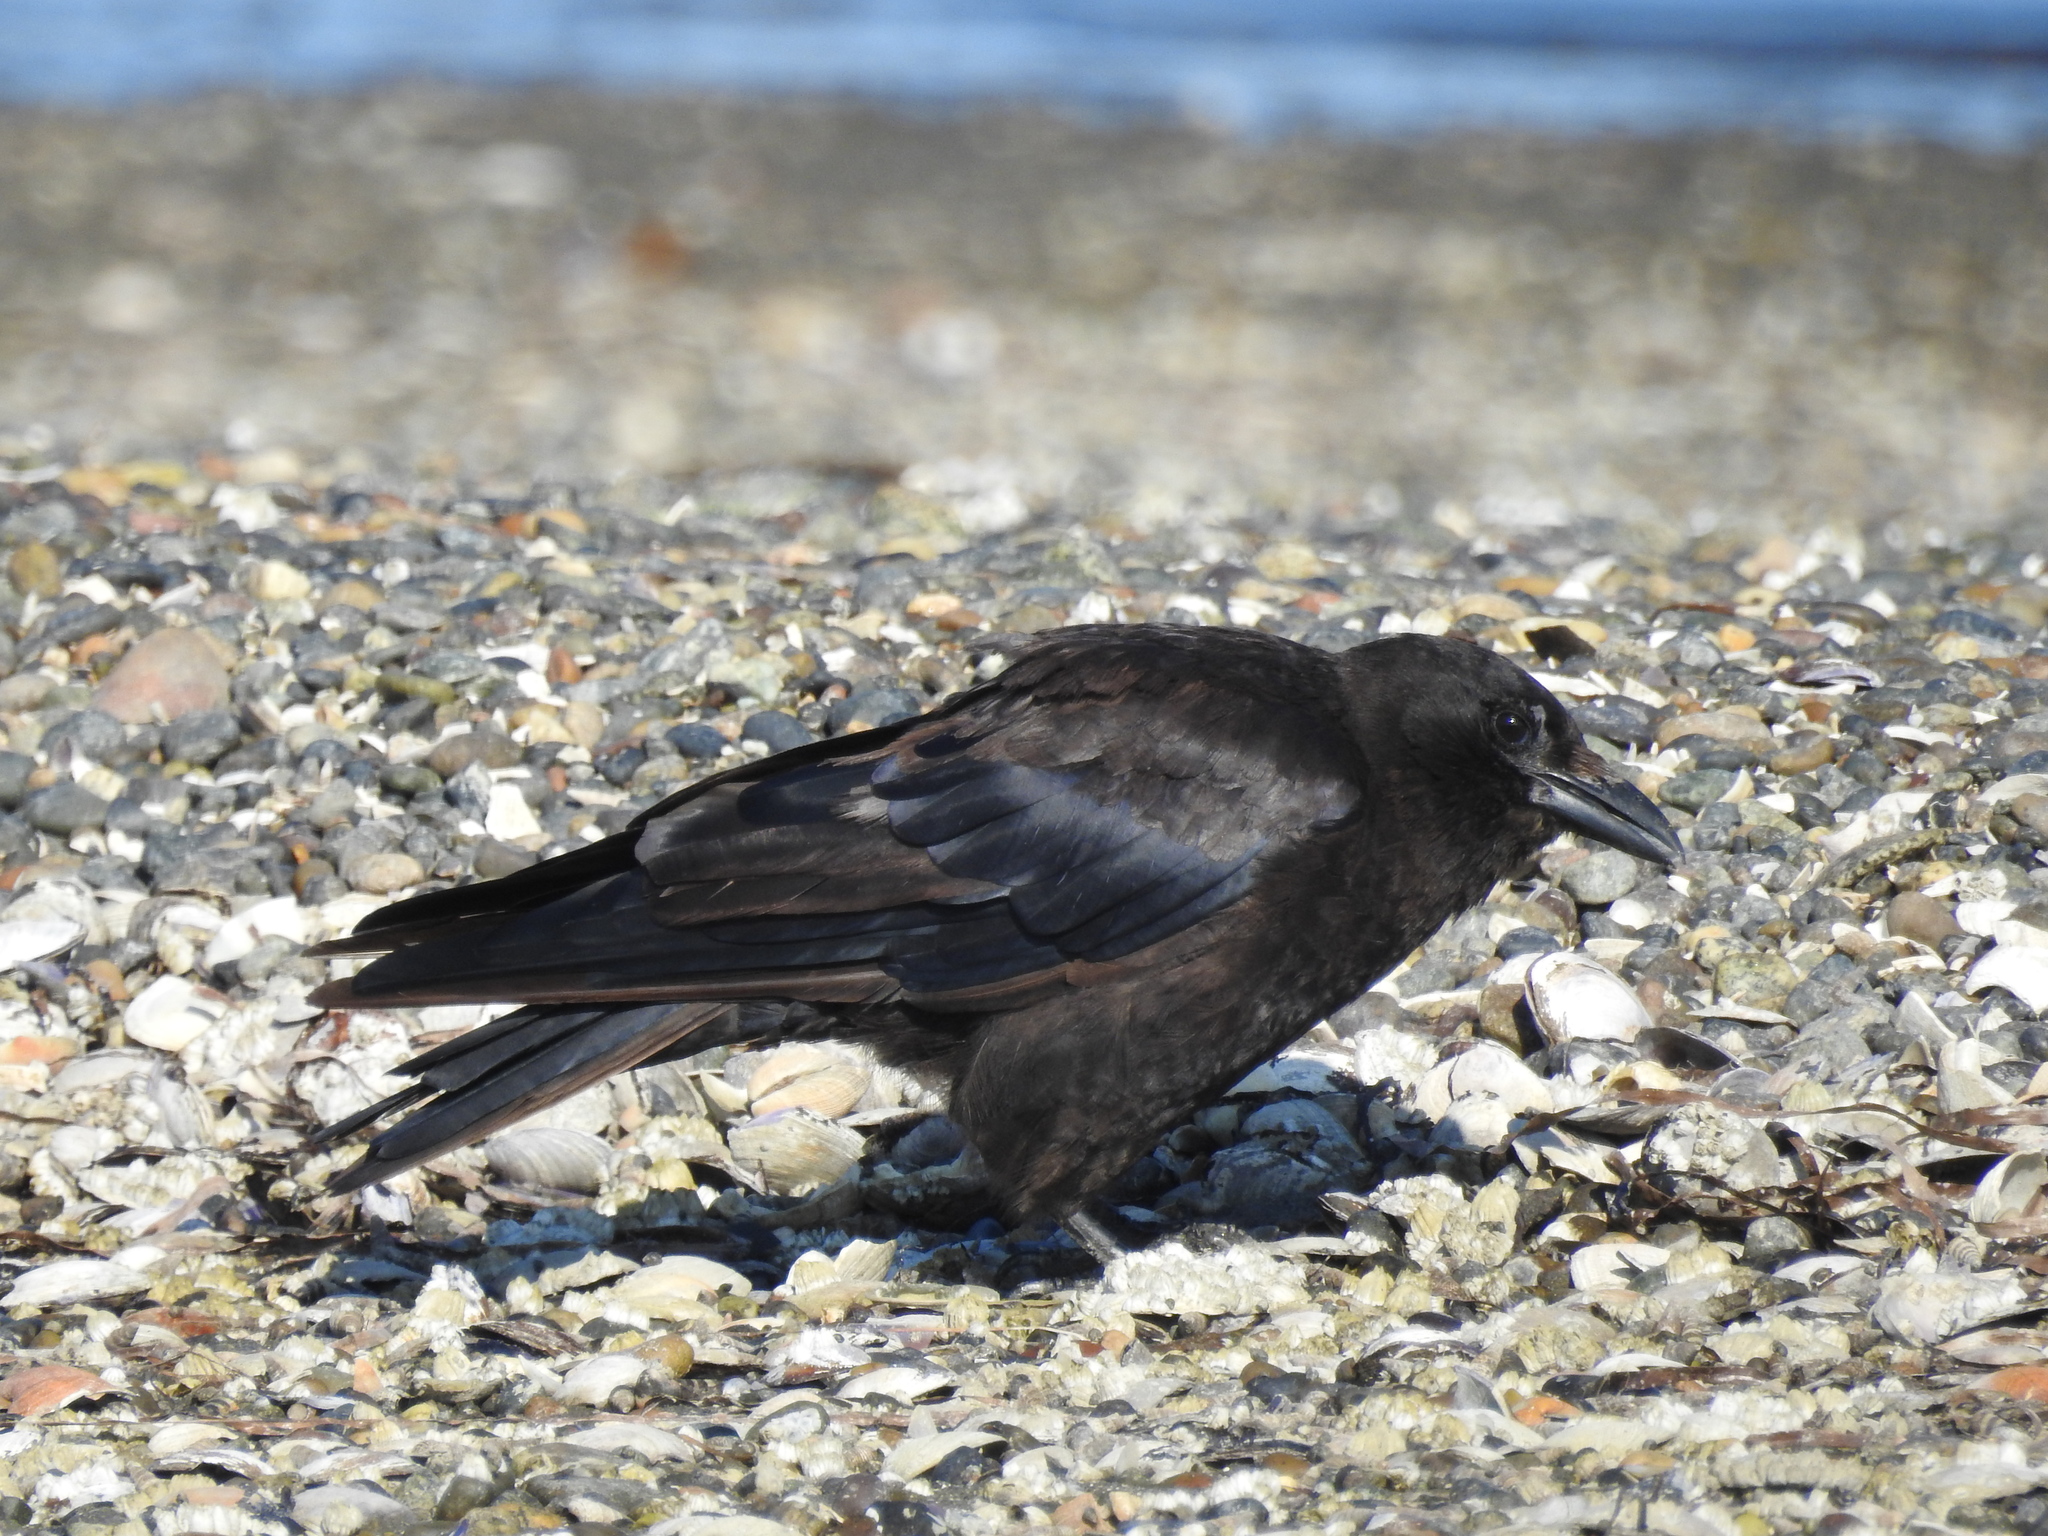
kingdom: Animalia
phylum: Chordata
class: Aves
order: Passeriformes
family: Corvidae
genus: Corvus
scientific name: Corvus brachyrhynchos
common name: American crow
